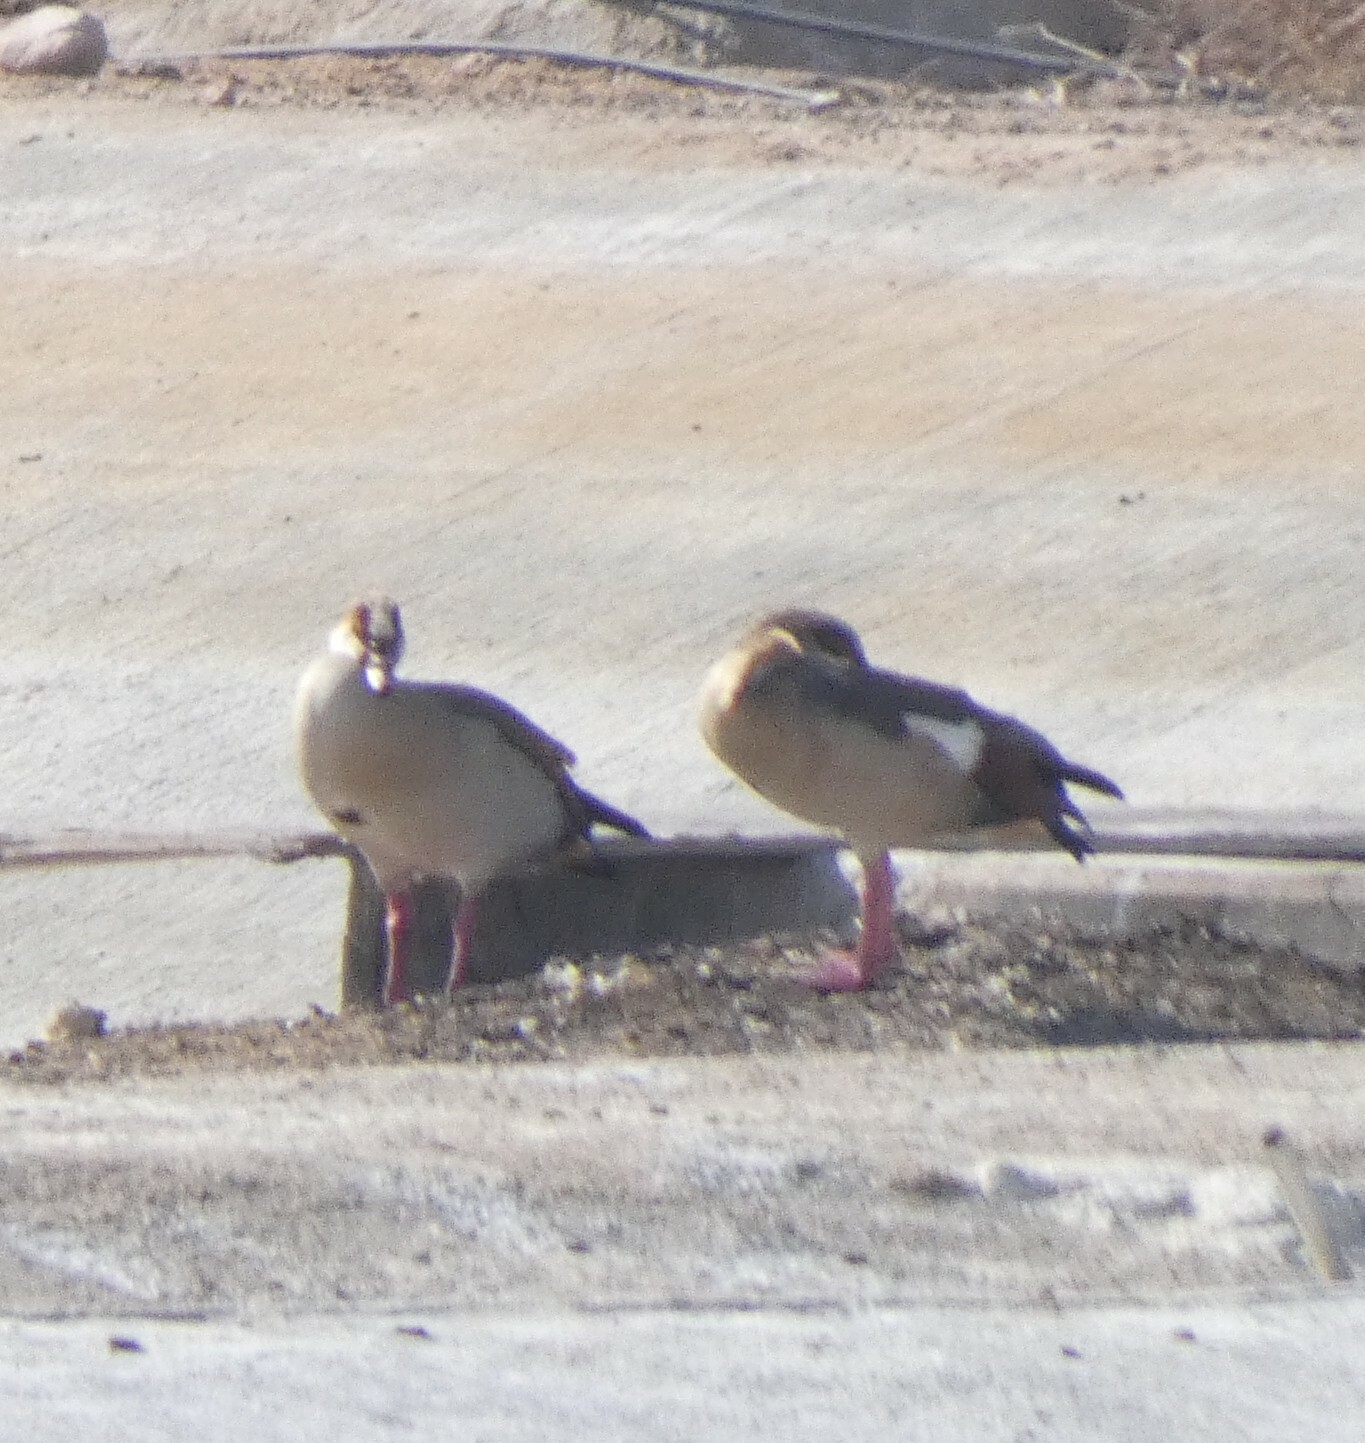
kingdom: Animalia
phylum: Chordata
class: Aves
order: Anseriformes
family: Anatidae
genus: Alopochen
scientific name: Alopochen aegyptiaca
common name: Egyptian goose
